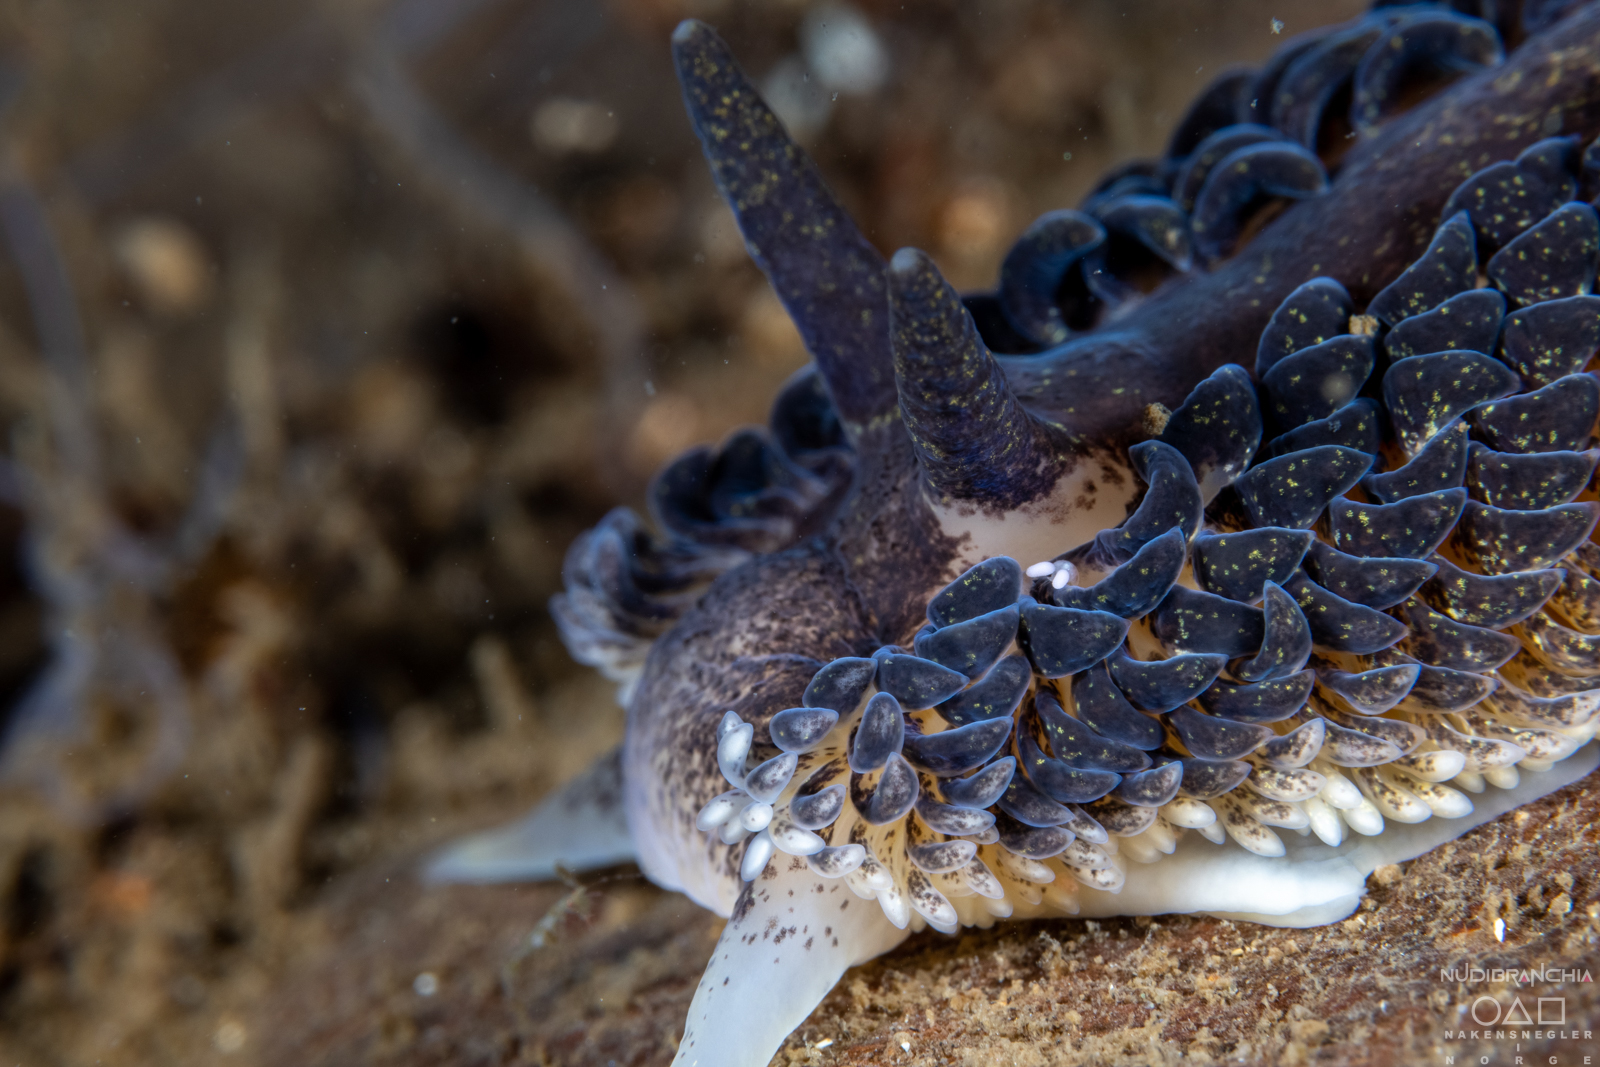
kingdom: Animalia
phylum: Mollusca
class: Gastropoda
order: Nudibranchia
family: Aeolidiidae
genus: Aeolidia
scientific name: Aeolidia papillosa
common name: Common grey sea slug
